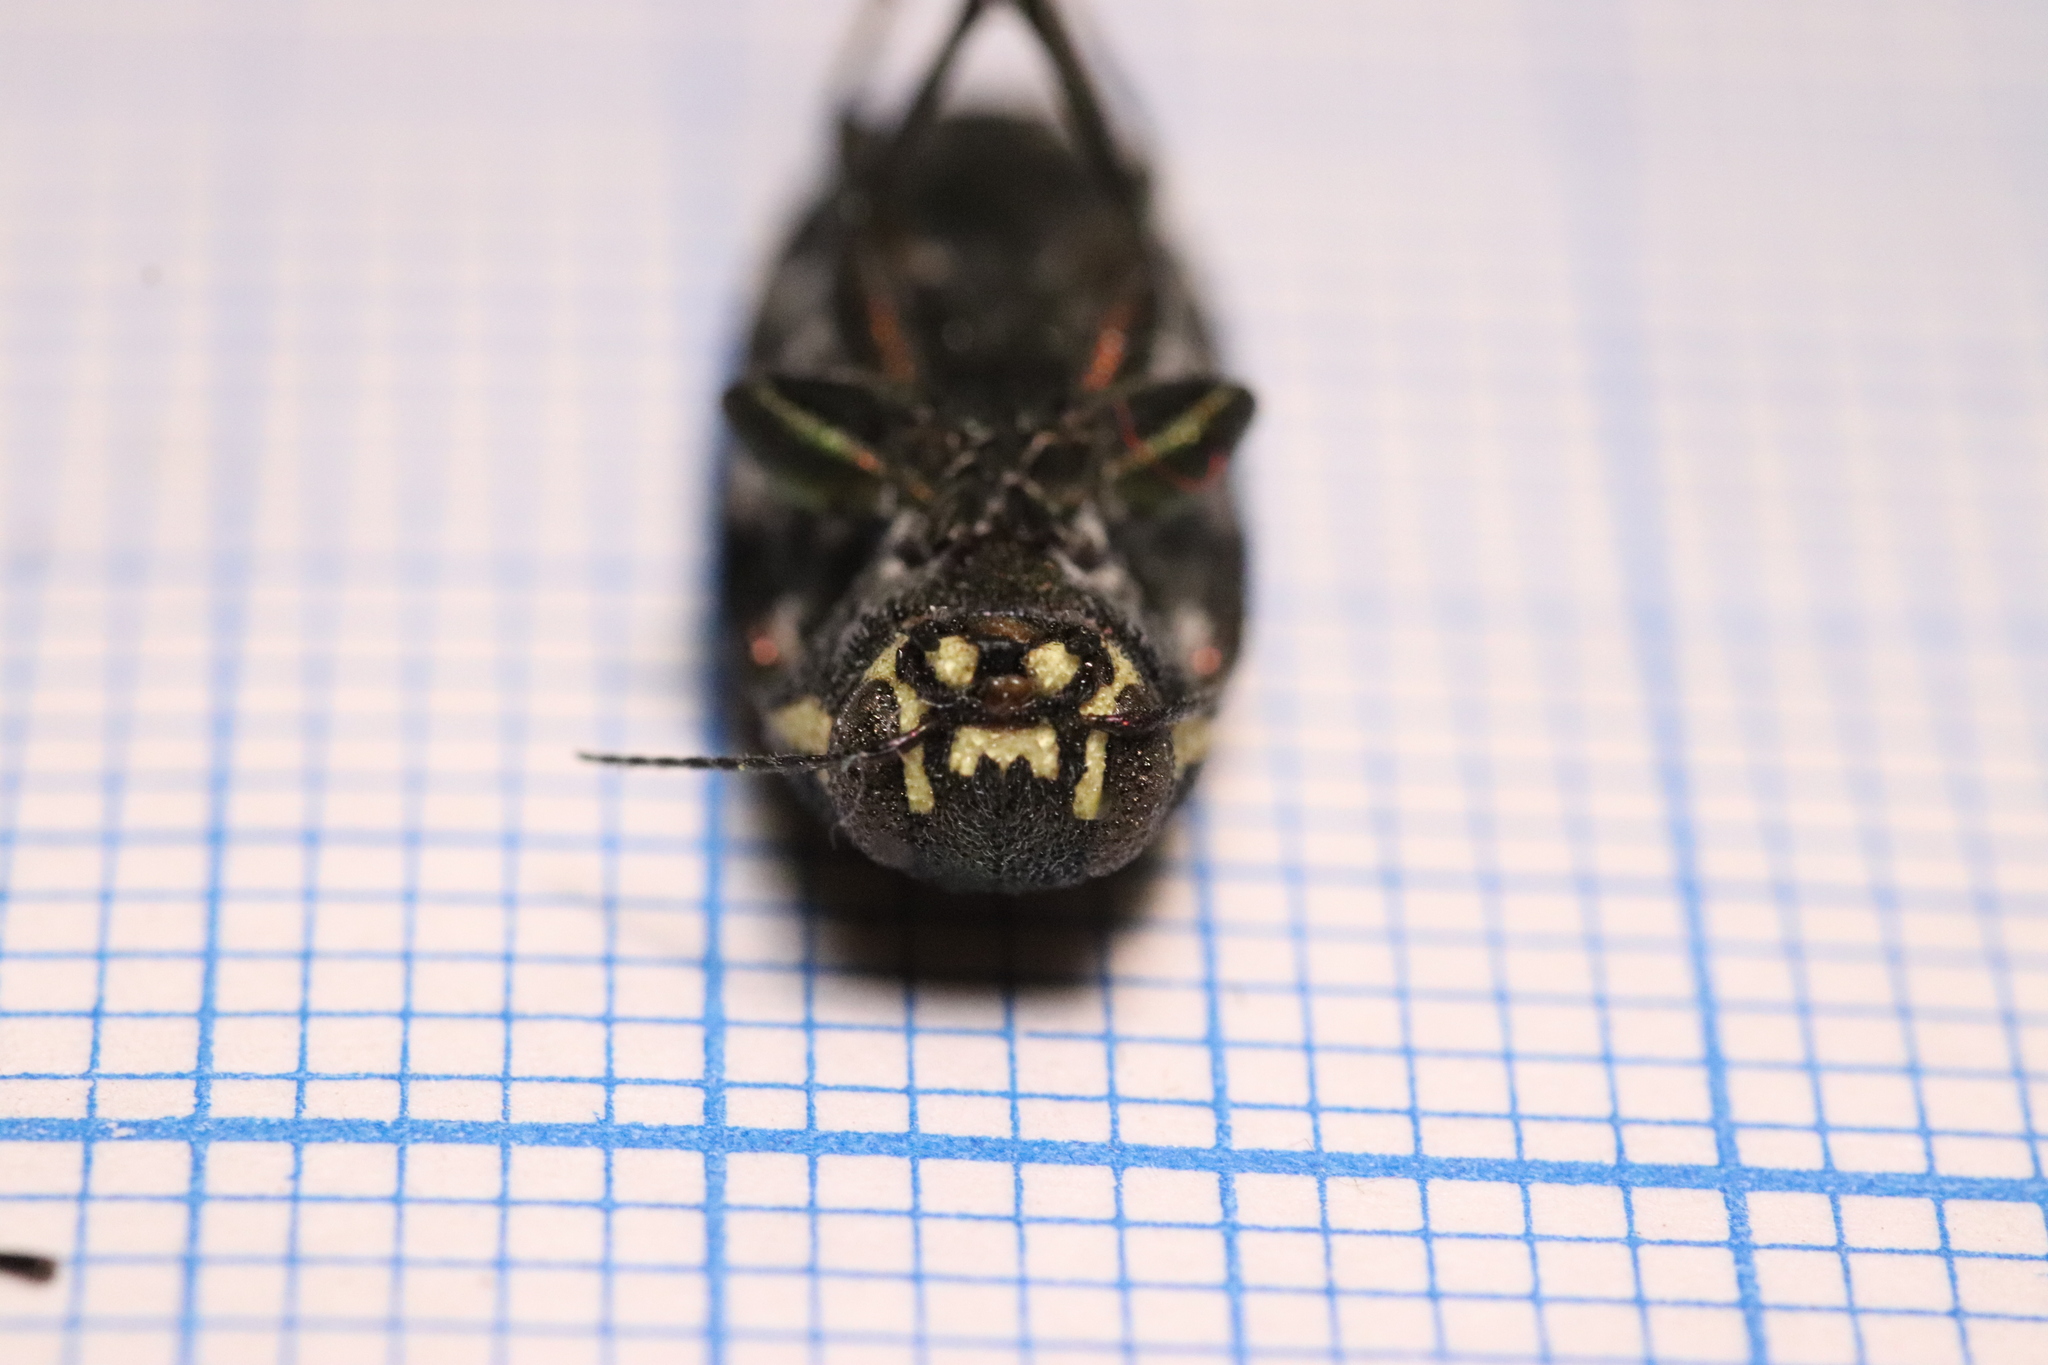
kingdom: Animalia
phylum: Arthropoda
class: Insecta
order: Coleoptera
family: Buprestidae
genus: Buprestis
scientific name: Buprestis haemorrhoidalis
